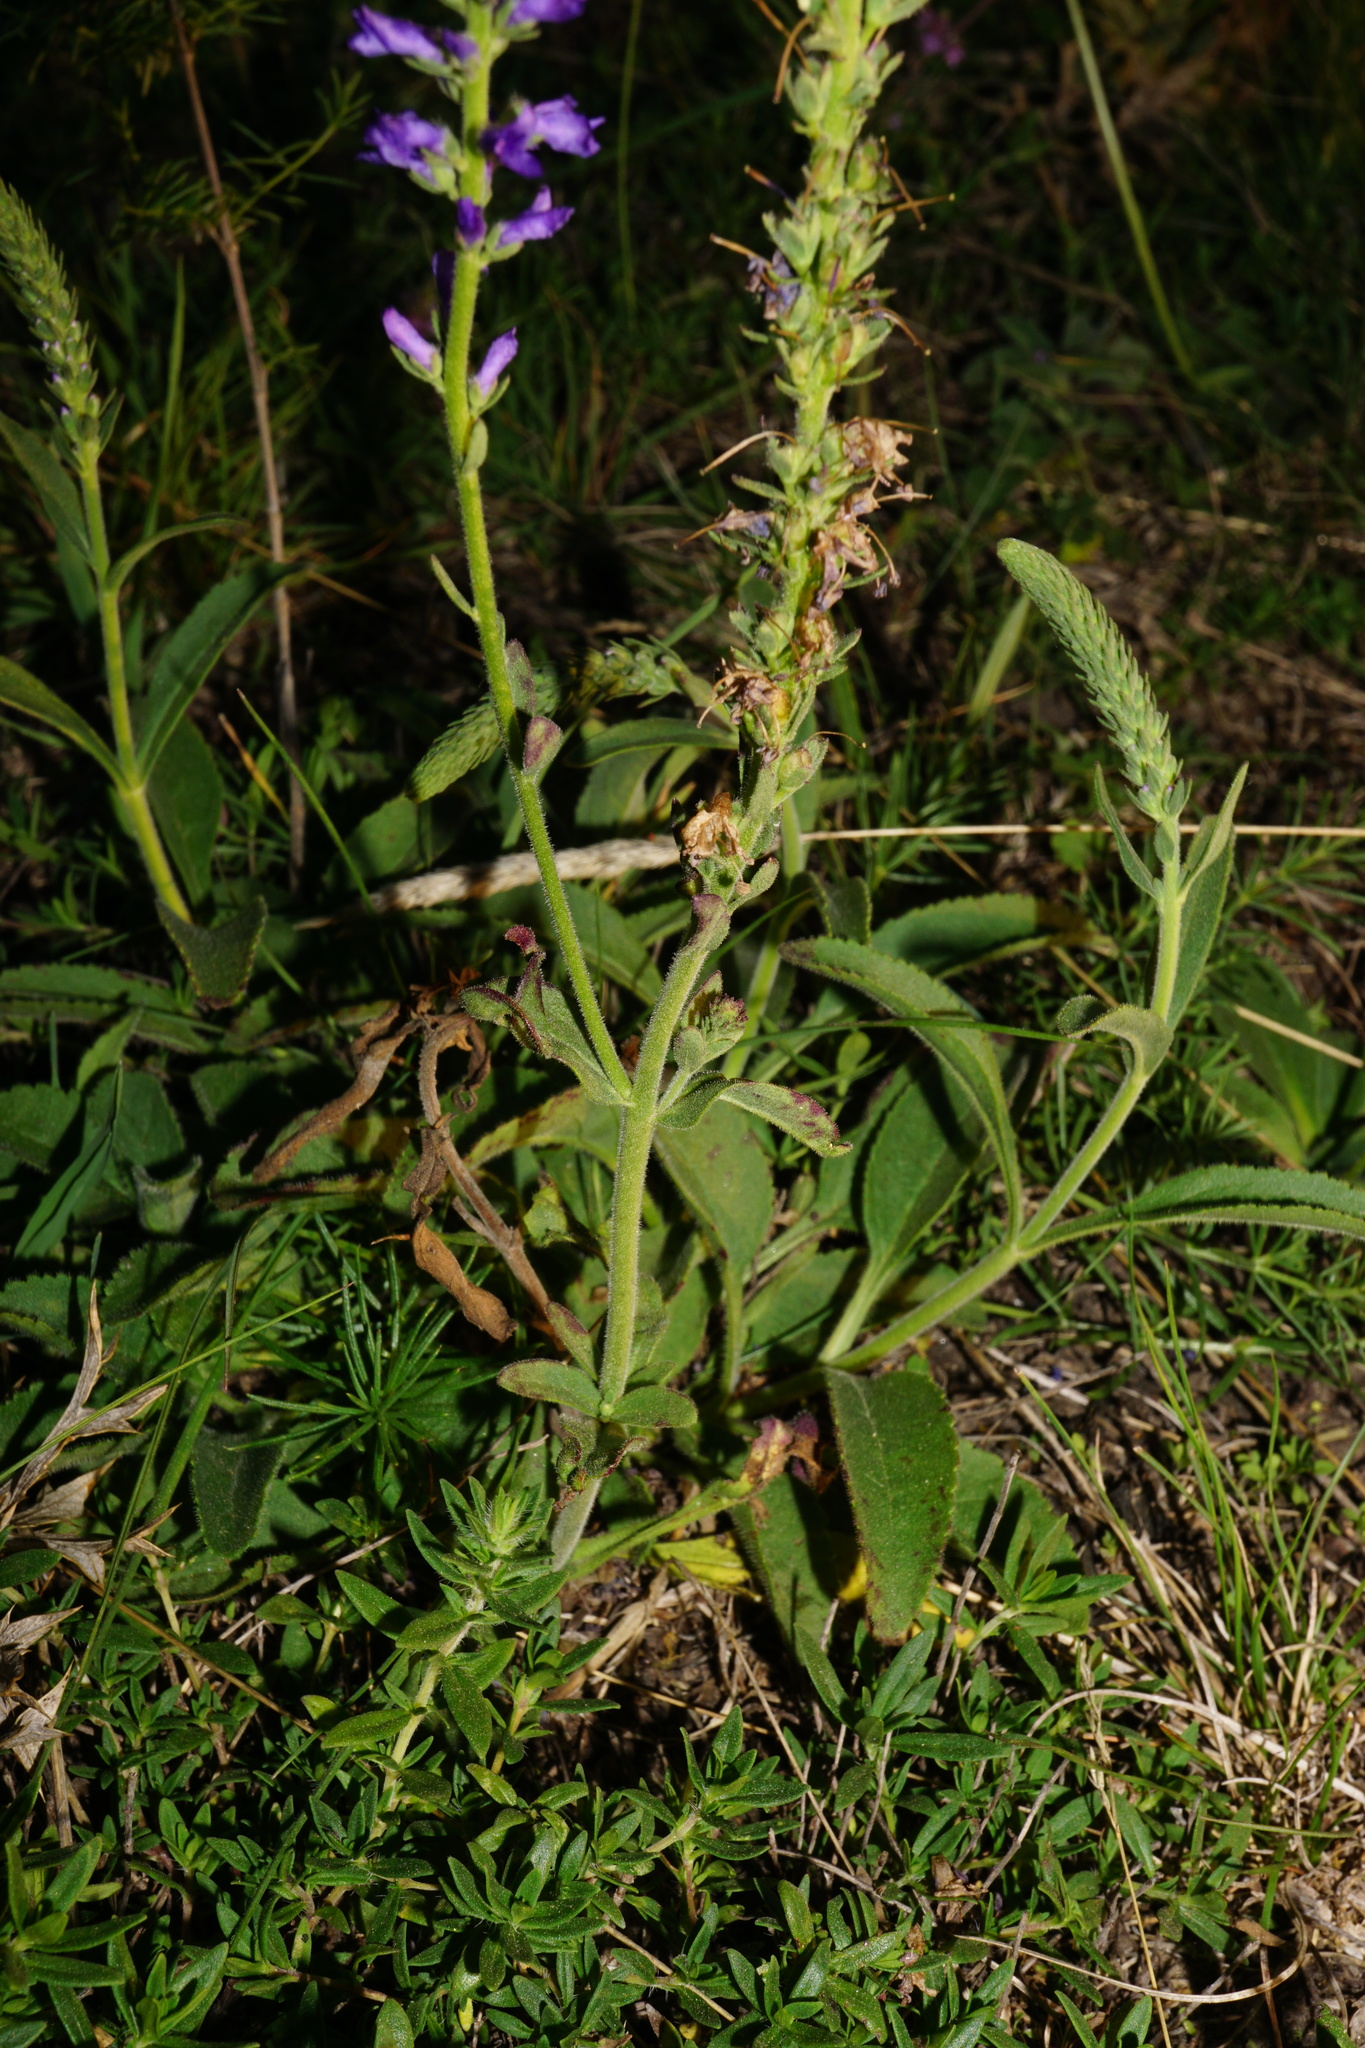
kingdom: Plantae
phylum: Tracheophyta
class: Magnoliopsida
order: Lamiales
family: Plantaginaceae
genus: Veronica
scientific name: Veronica spicata
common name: Spiked speedwell
